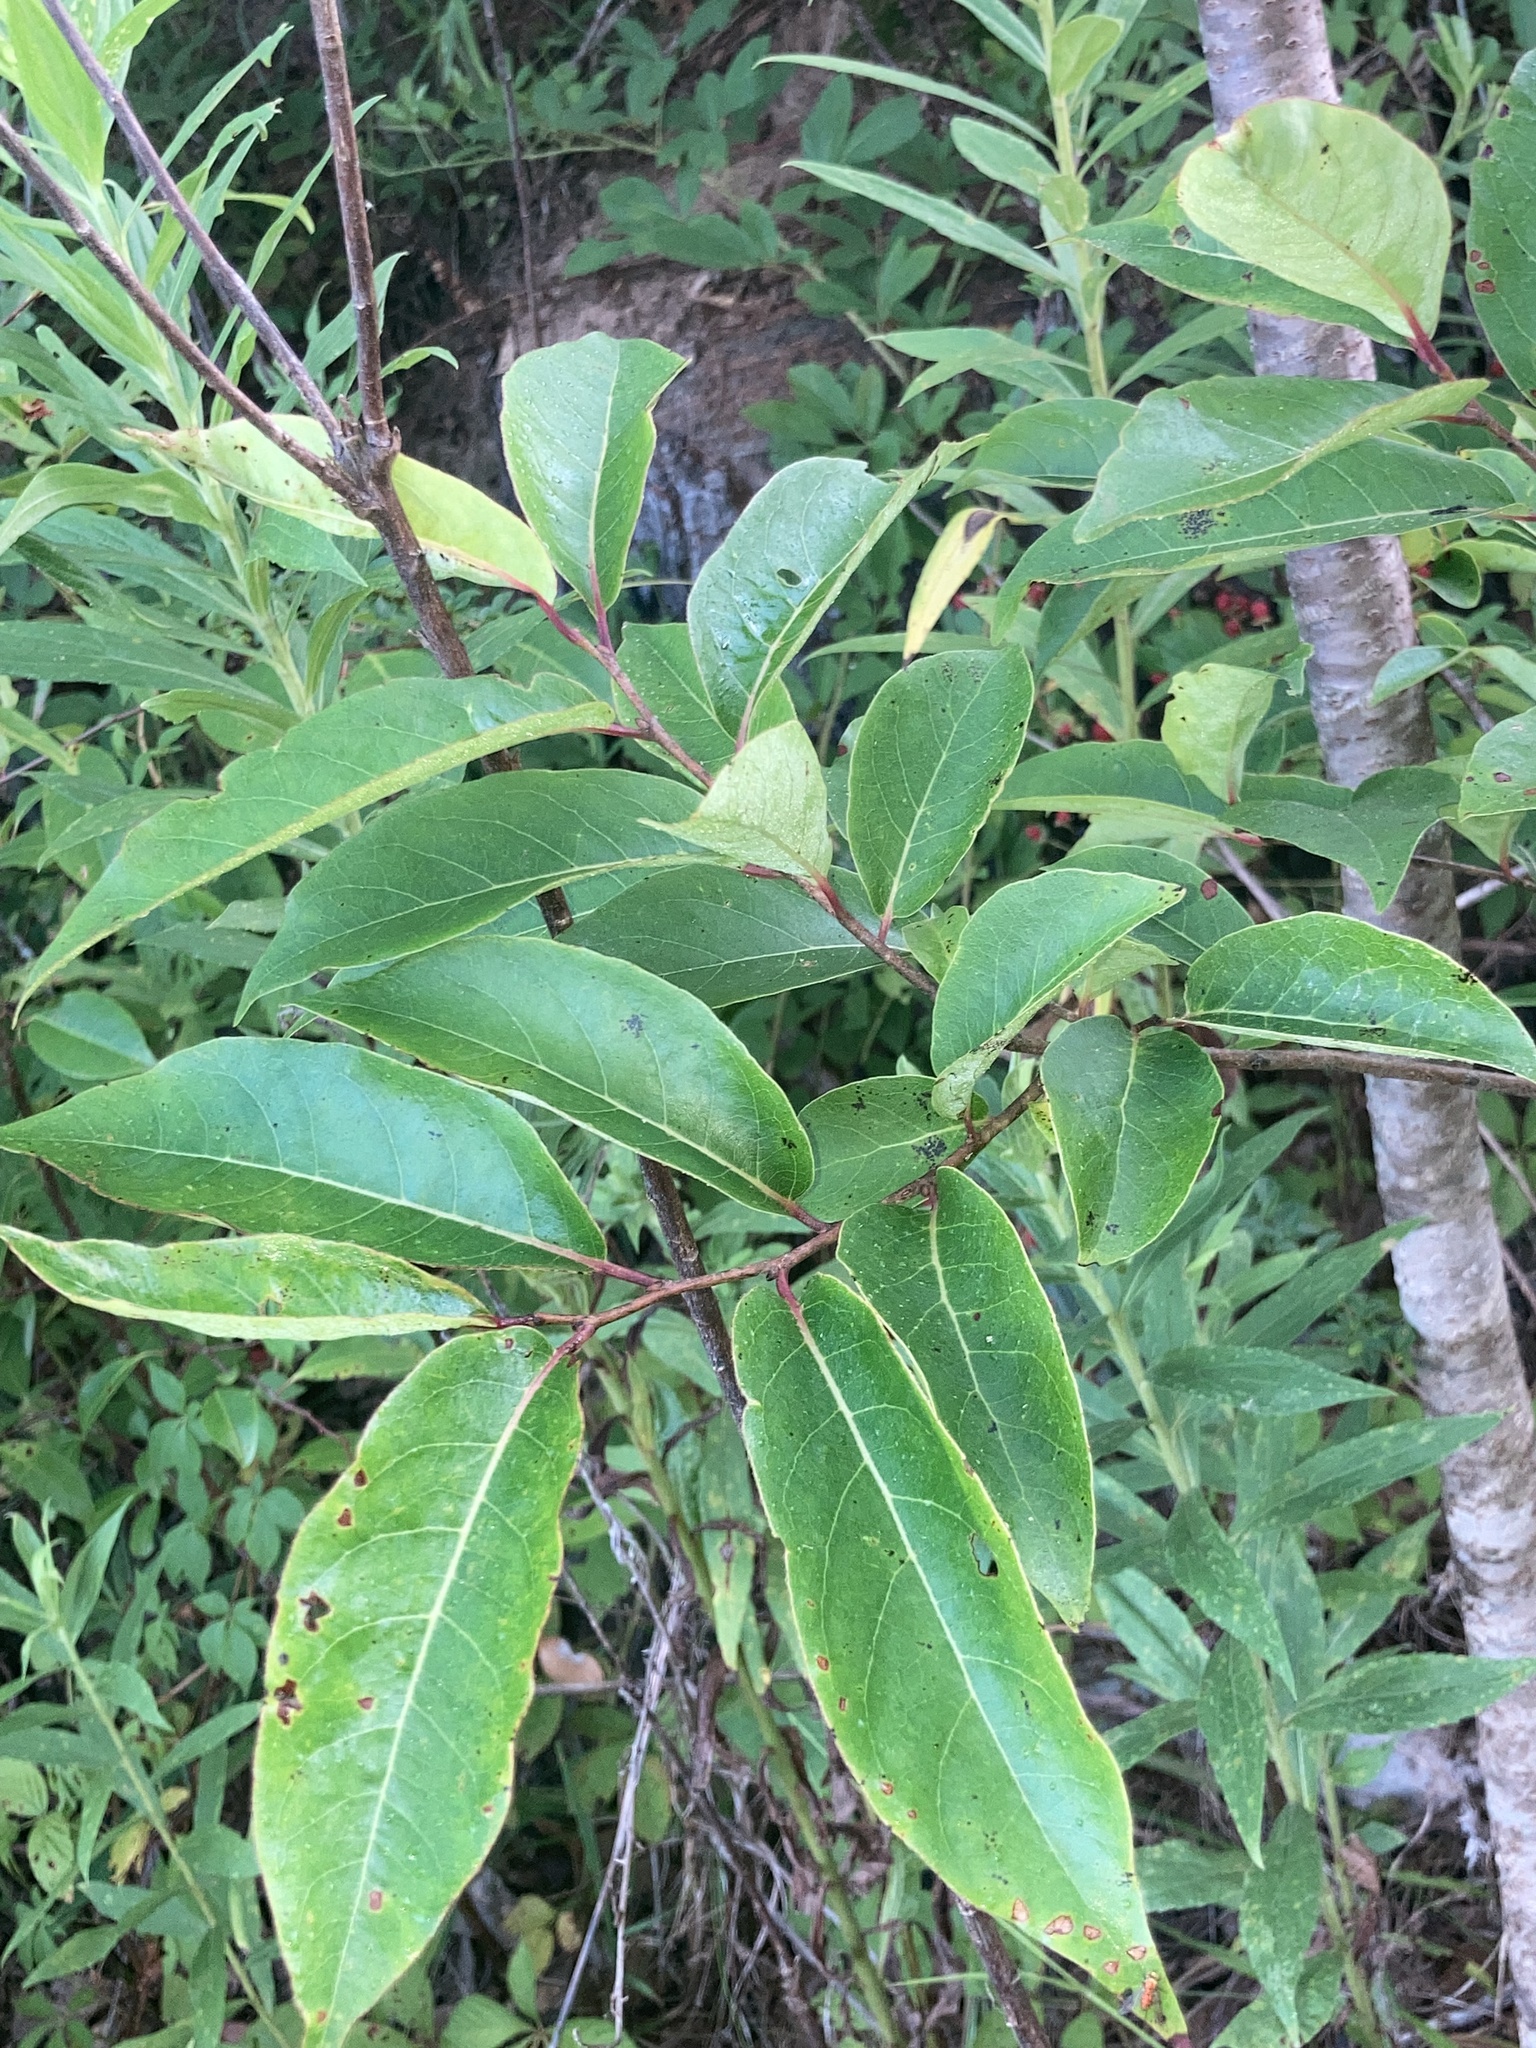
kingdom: Plantae
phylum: Tracheophyta
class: Magnoliopsida
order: Ericales
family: Ebenaceae
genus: Diospyros
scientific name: Diospyros virginiana
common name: Persimmon
